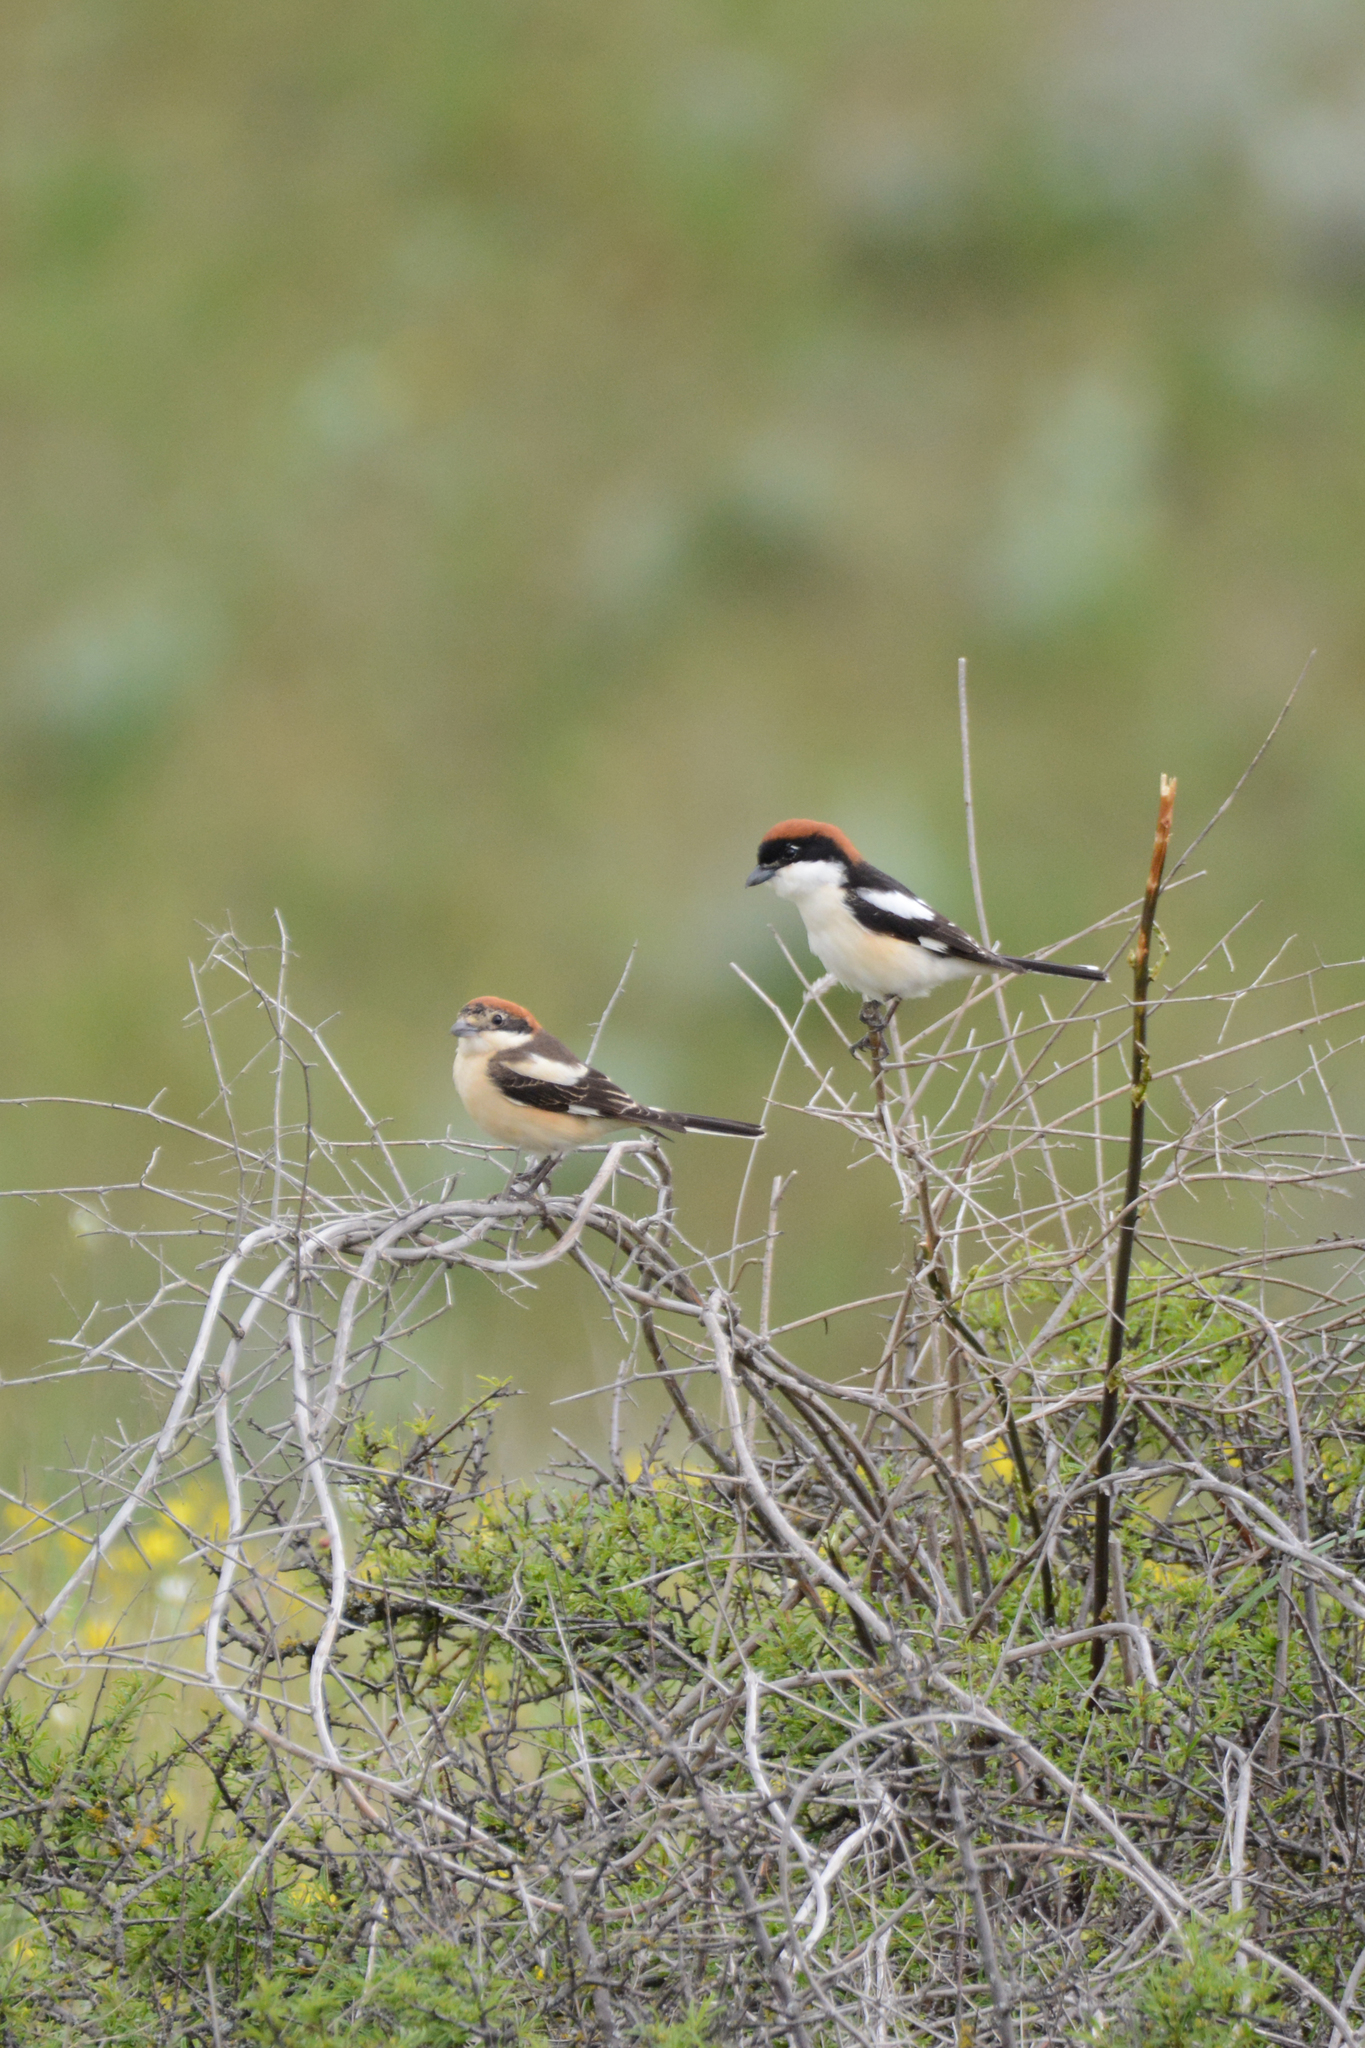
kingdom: Animalia
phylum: Chordata
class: Aves
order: Passeriformes
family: Laniidae
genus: Lanius
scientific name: Lanius senator
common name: Woodchat shrike
